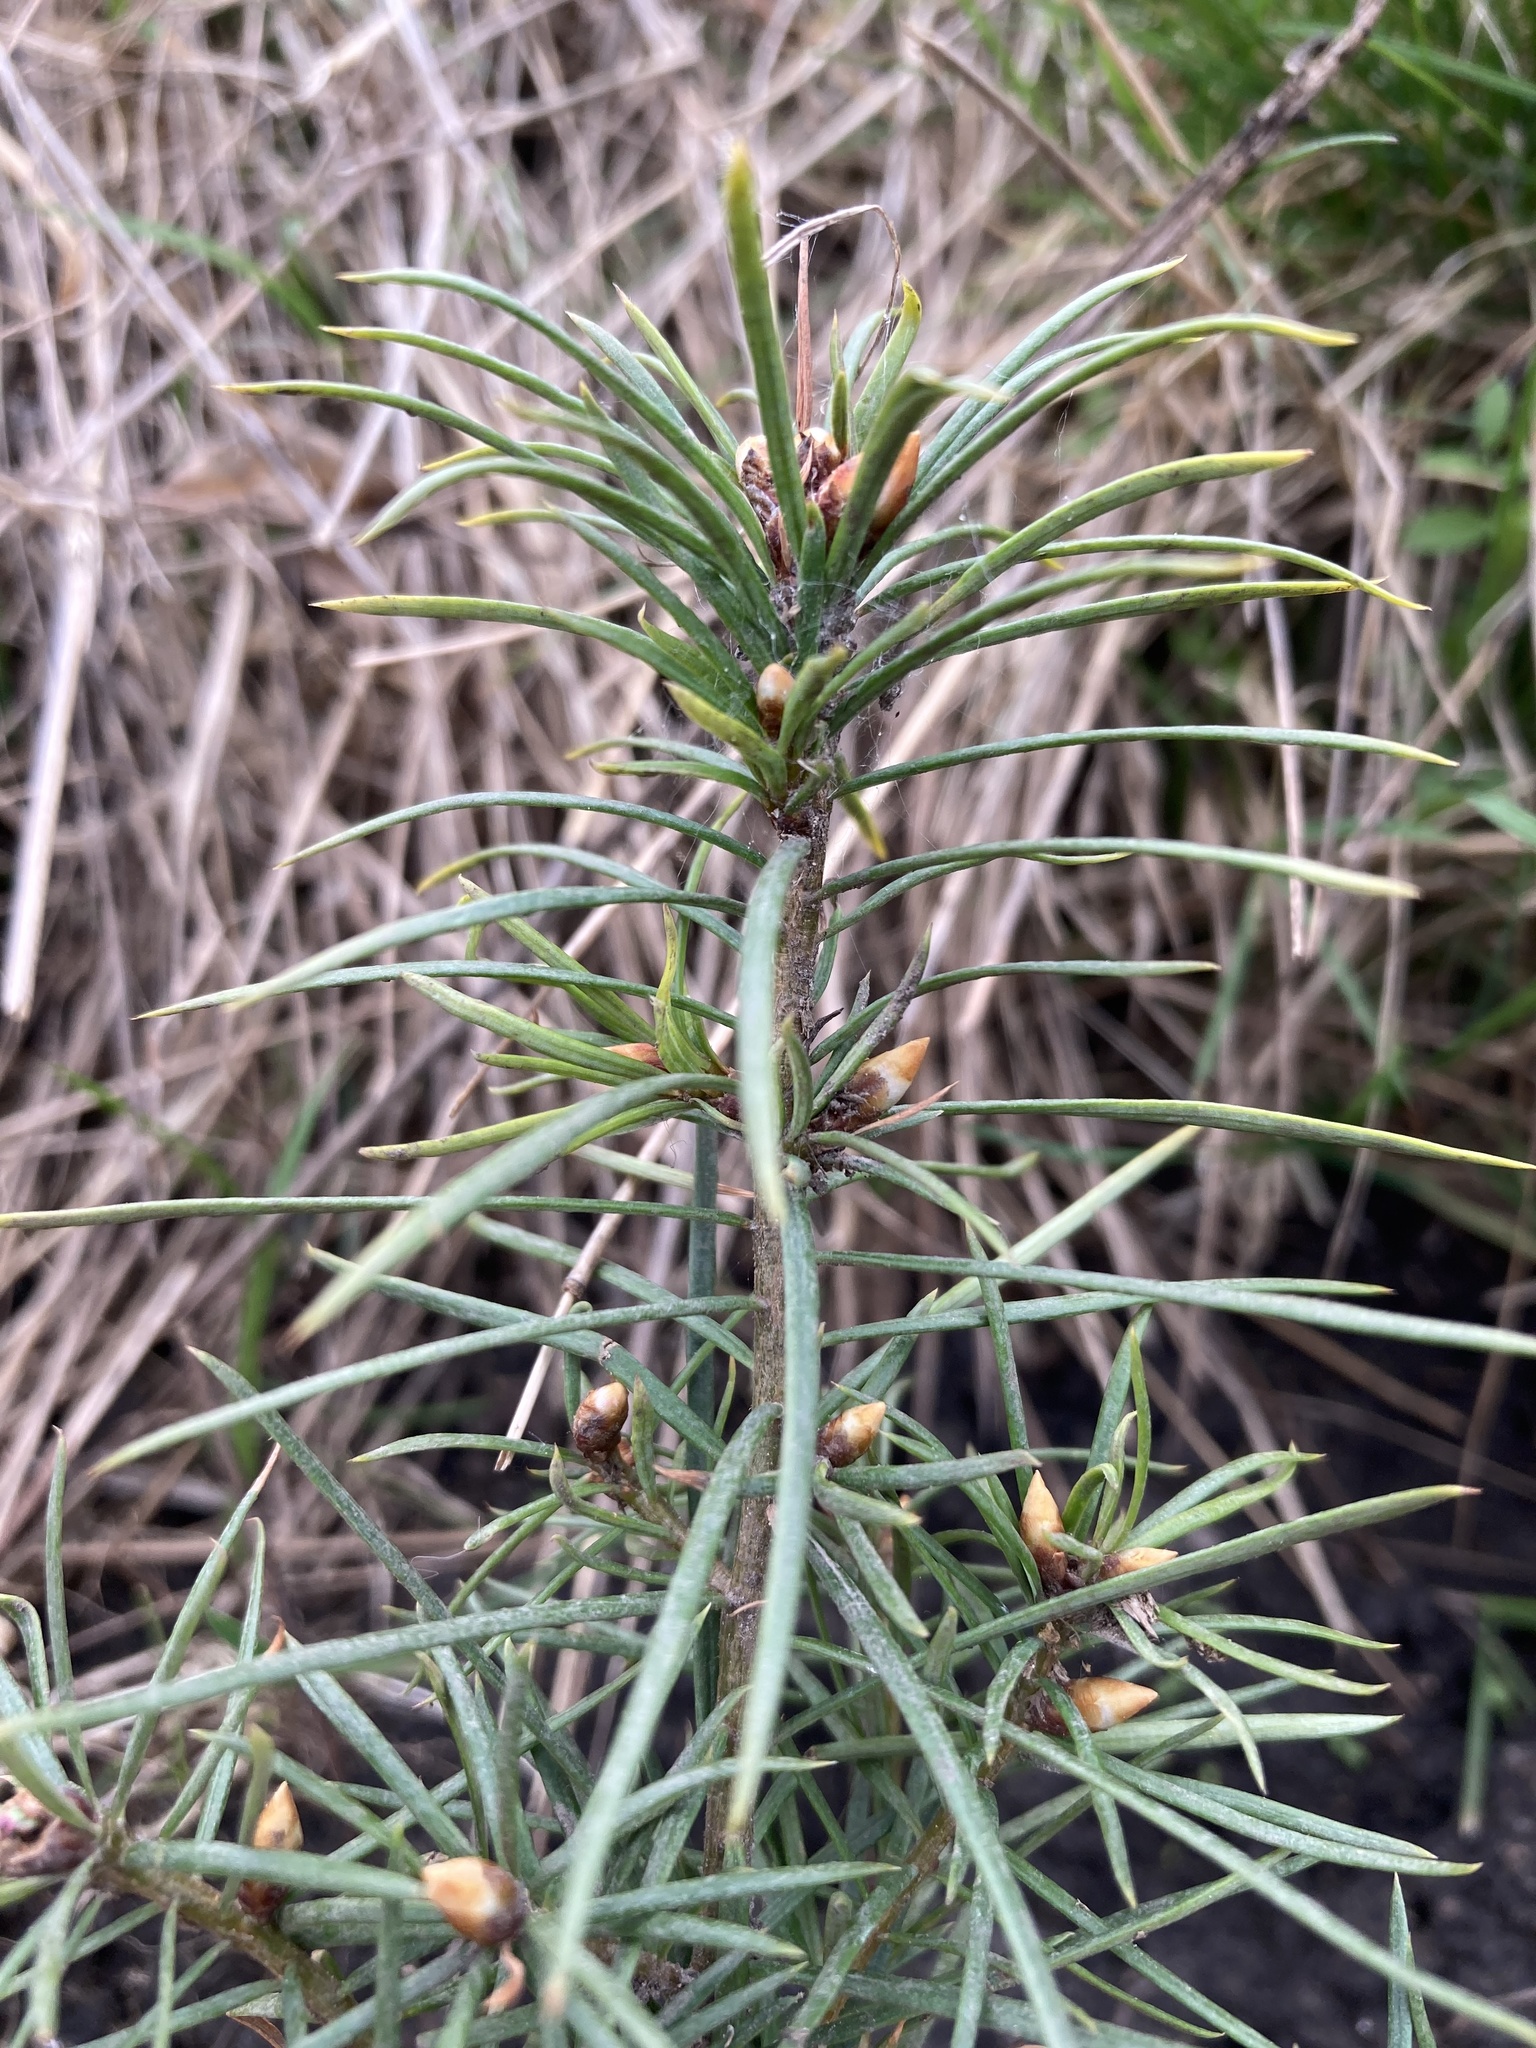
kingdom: Plantae
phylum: Tracheophyta
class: Pinopsida
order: Pinales
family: Pinaceae
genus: Pseudotsuga
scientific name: Pseudotsuga menziesii
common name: Douglas fir
